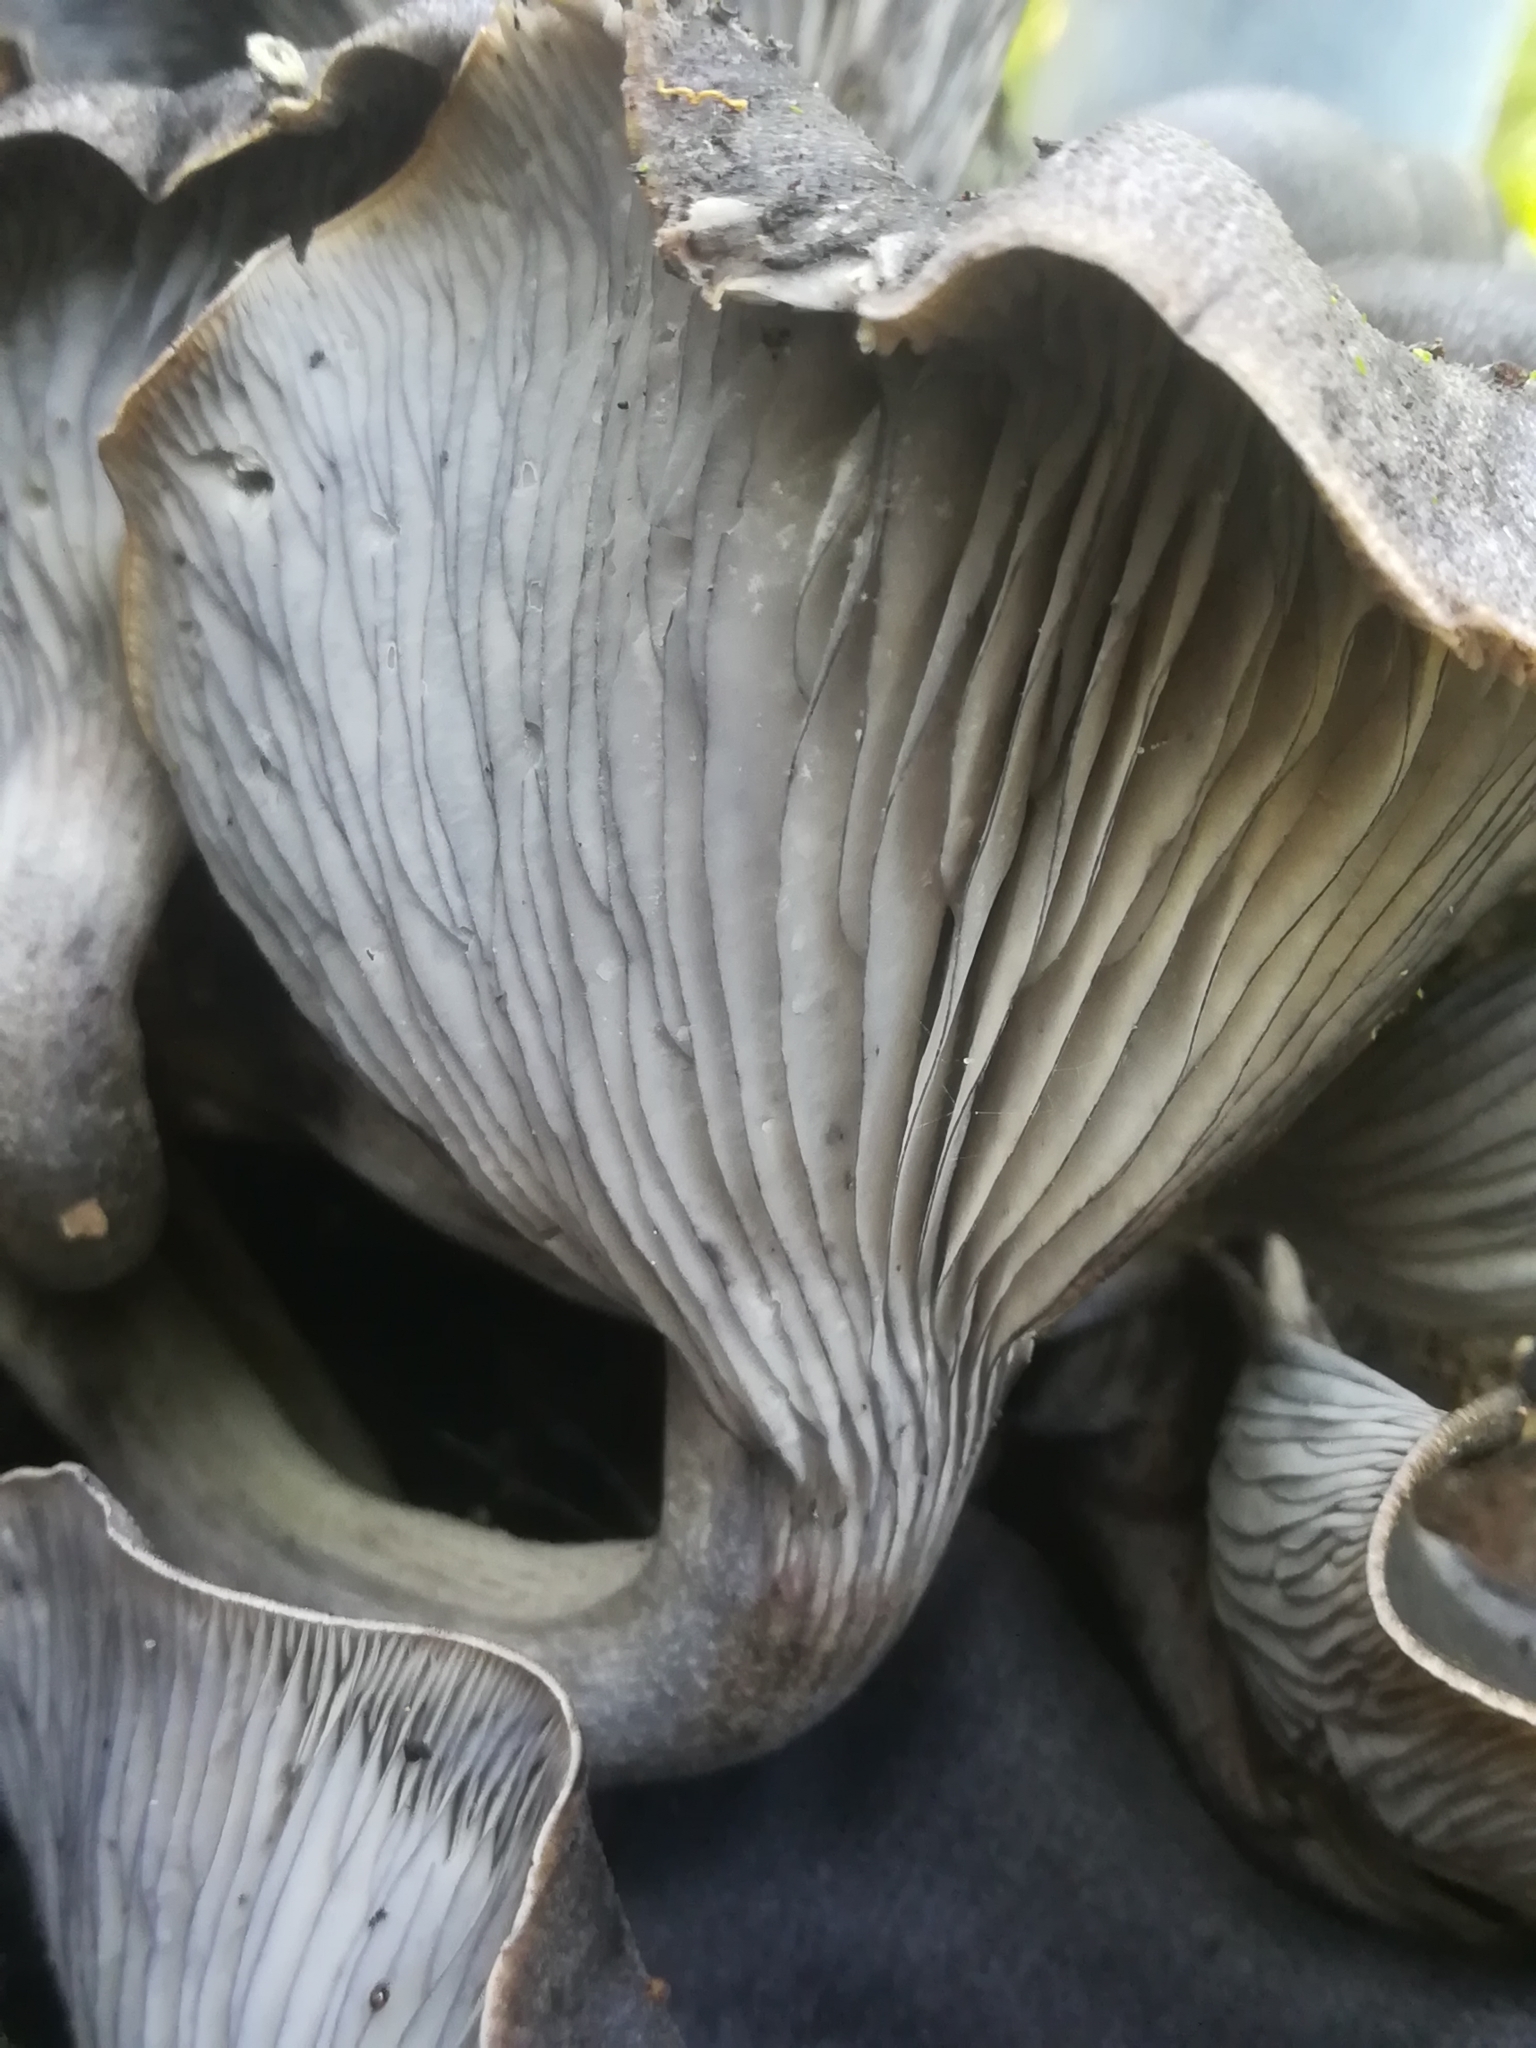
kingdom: Fungi
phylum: Basidiomycota
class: Agaricomycetes
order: Agaricales
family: Omphalotaceae
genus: Omphalotus
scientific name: Omphalotus mexicanus
